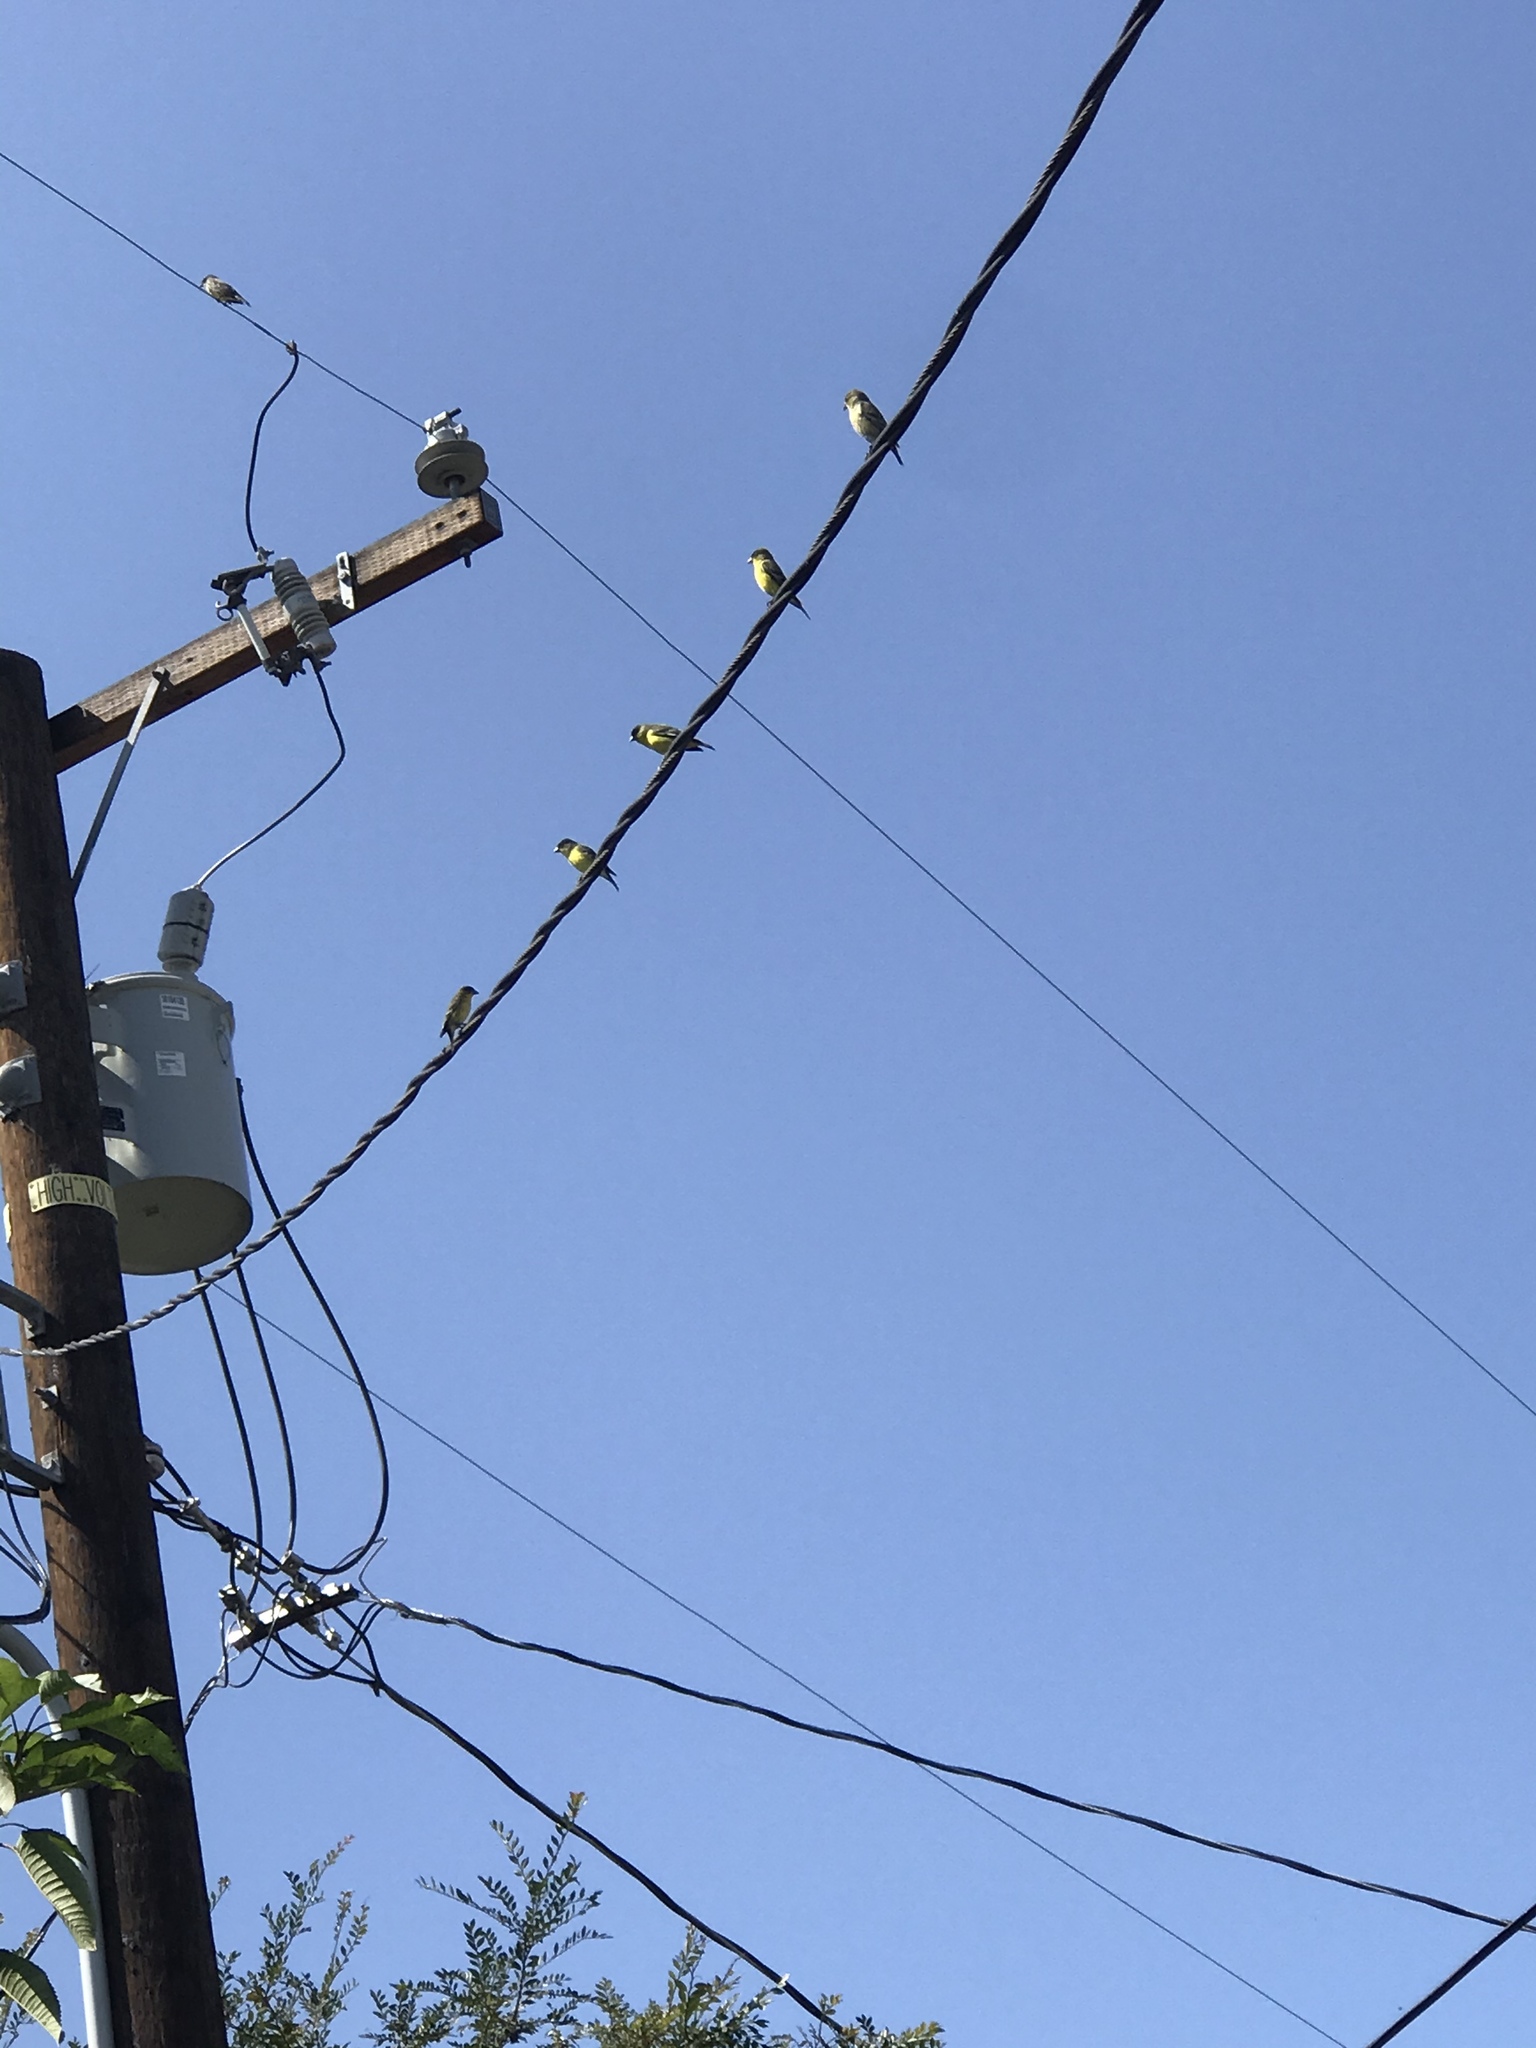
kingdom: Animalia
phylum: Chordata
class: Aves
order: Passeriformes
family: Fringillidae
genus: Spinus
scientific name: Spinus psaltria
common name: Lesser goldfinch
